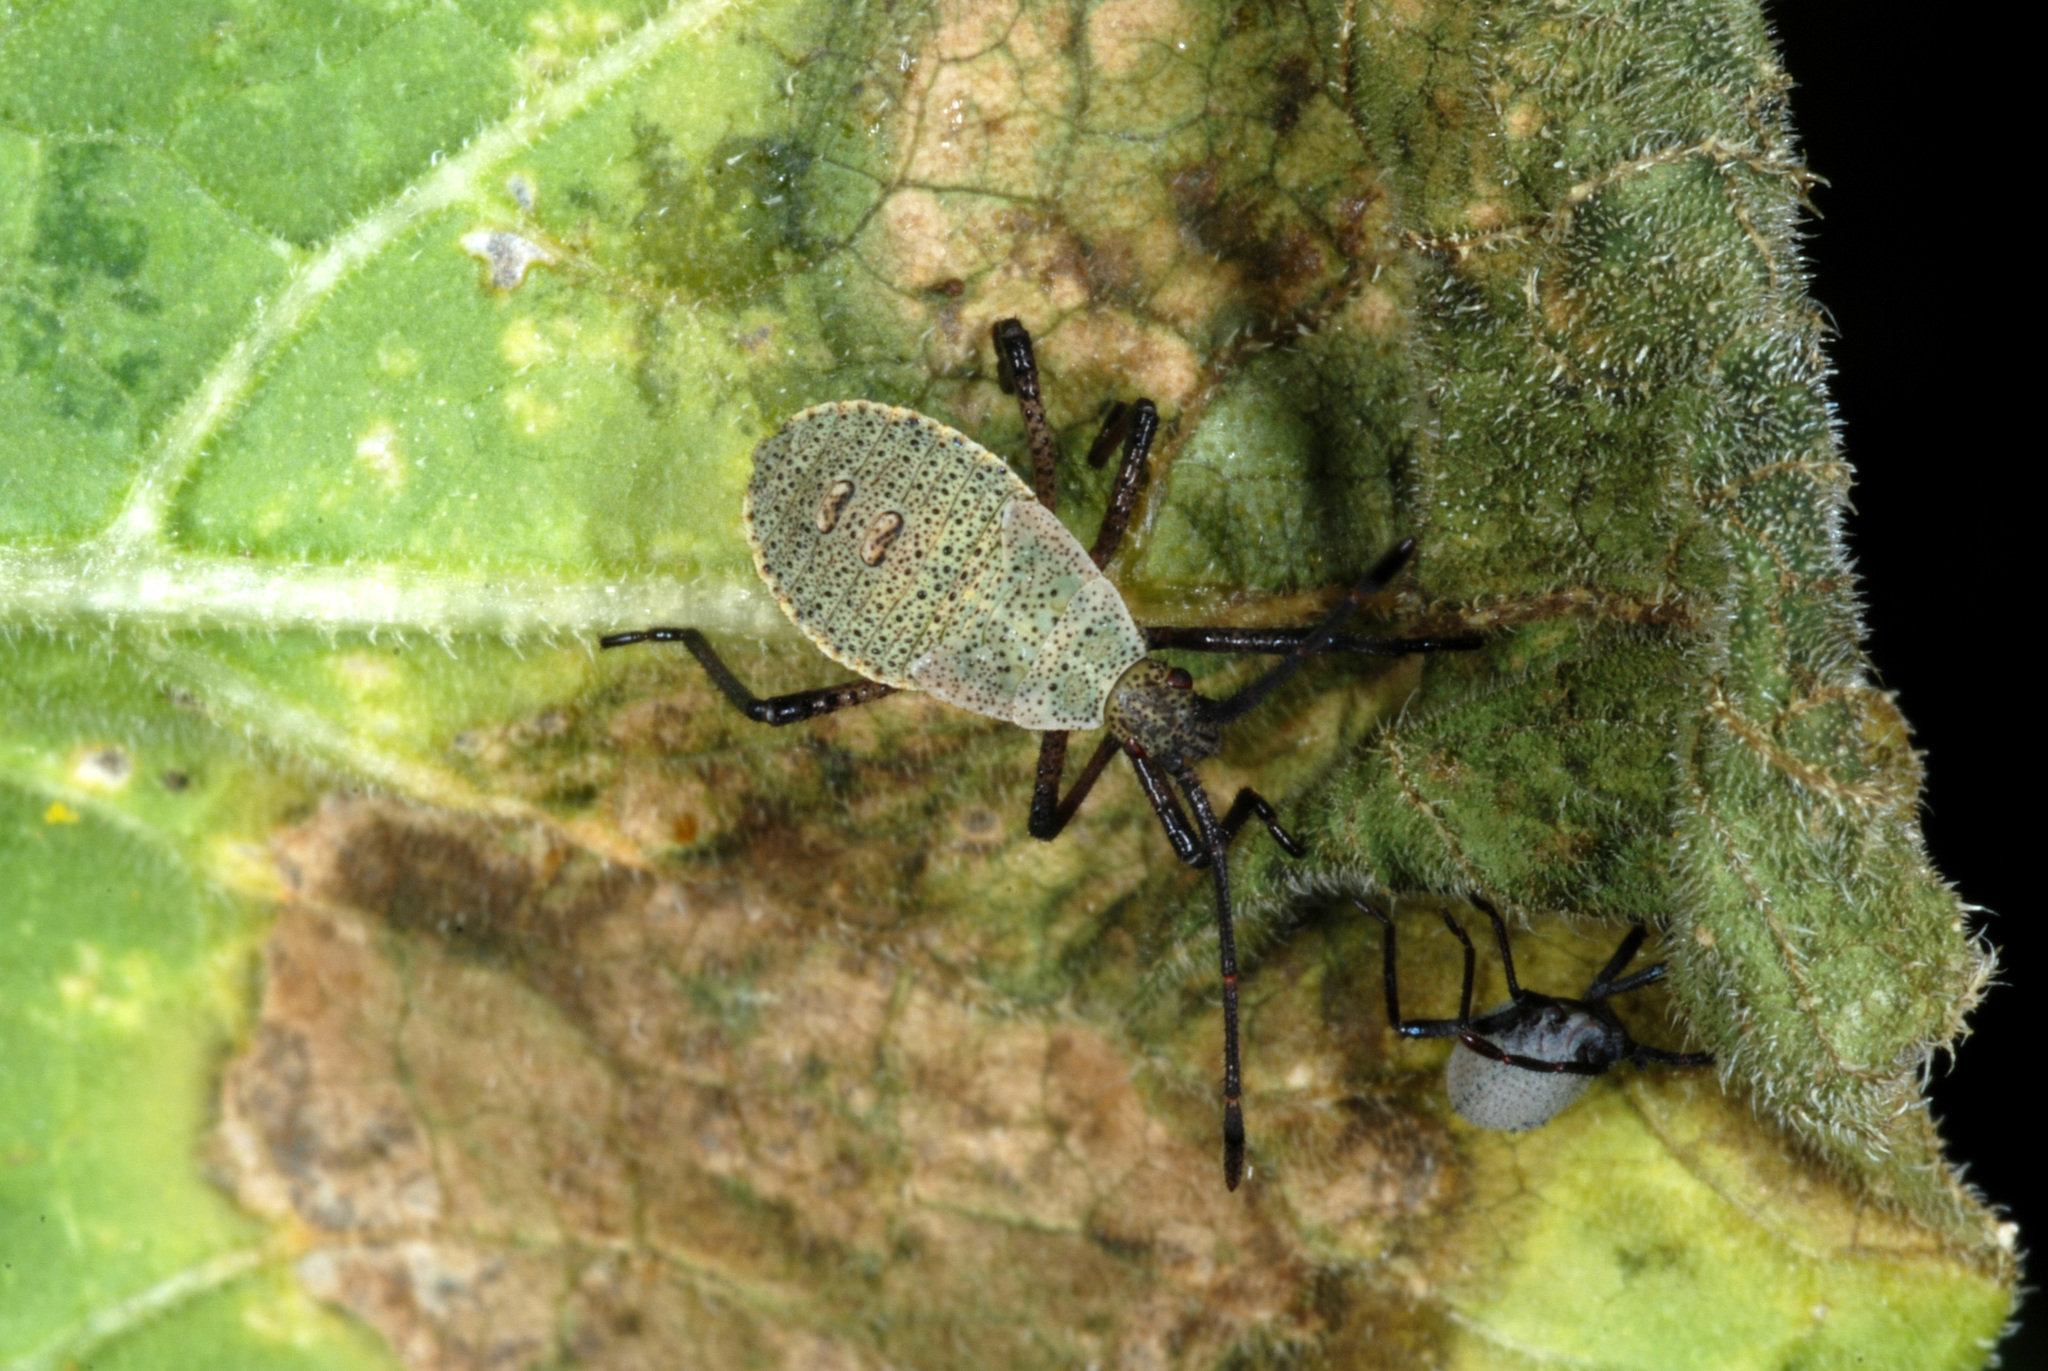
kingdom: Animalia
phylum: Arthropoda
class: Insecta
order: Hemiptera
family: Coreidae
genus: Anasa
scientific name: Anasa tristis
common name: Squash bug
